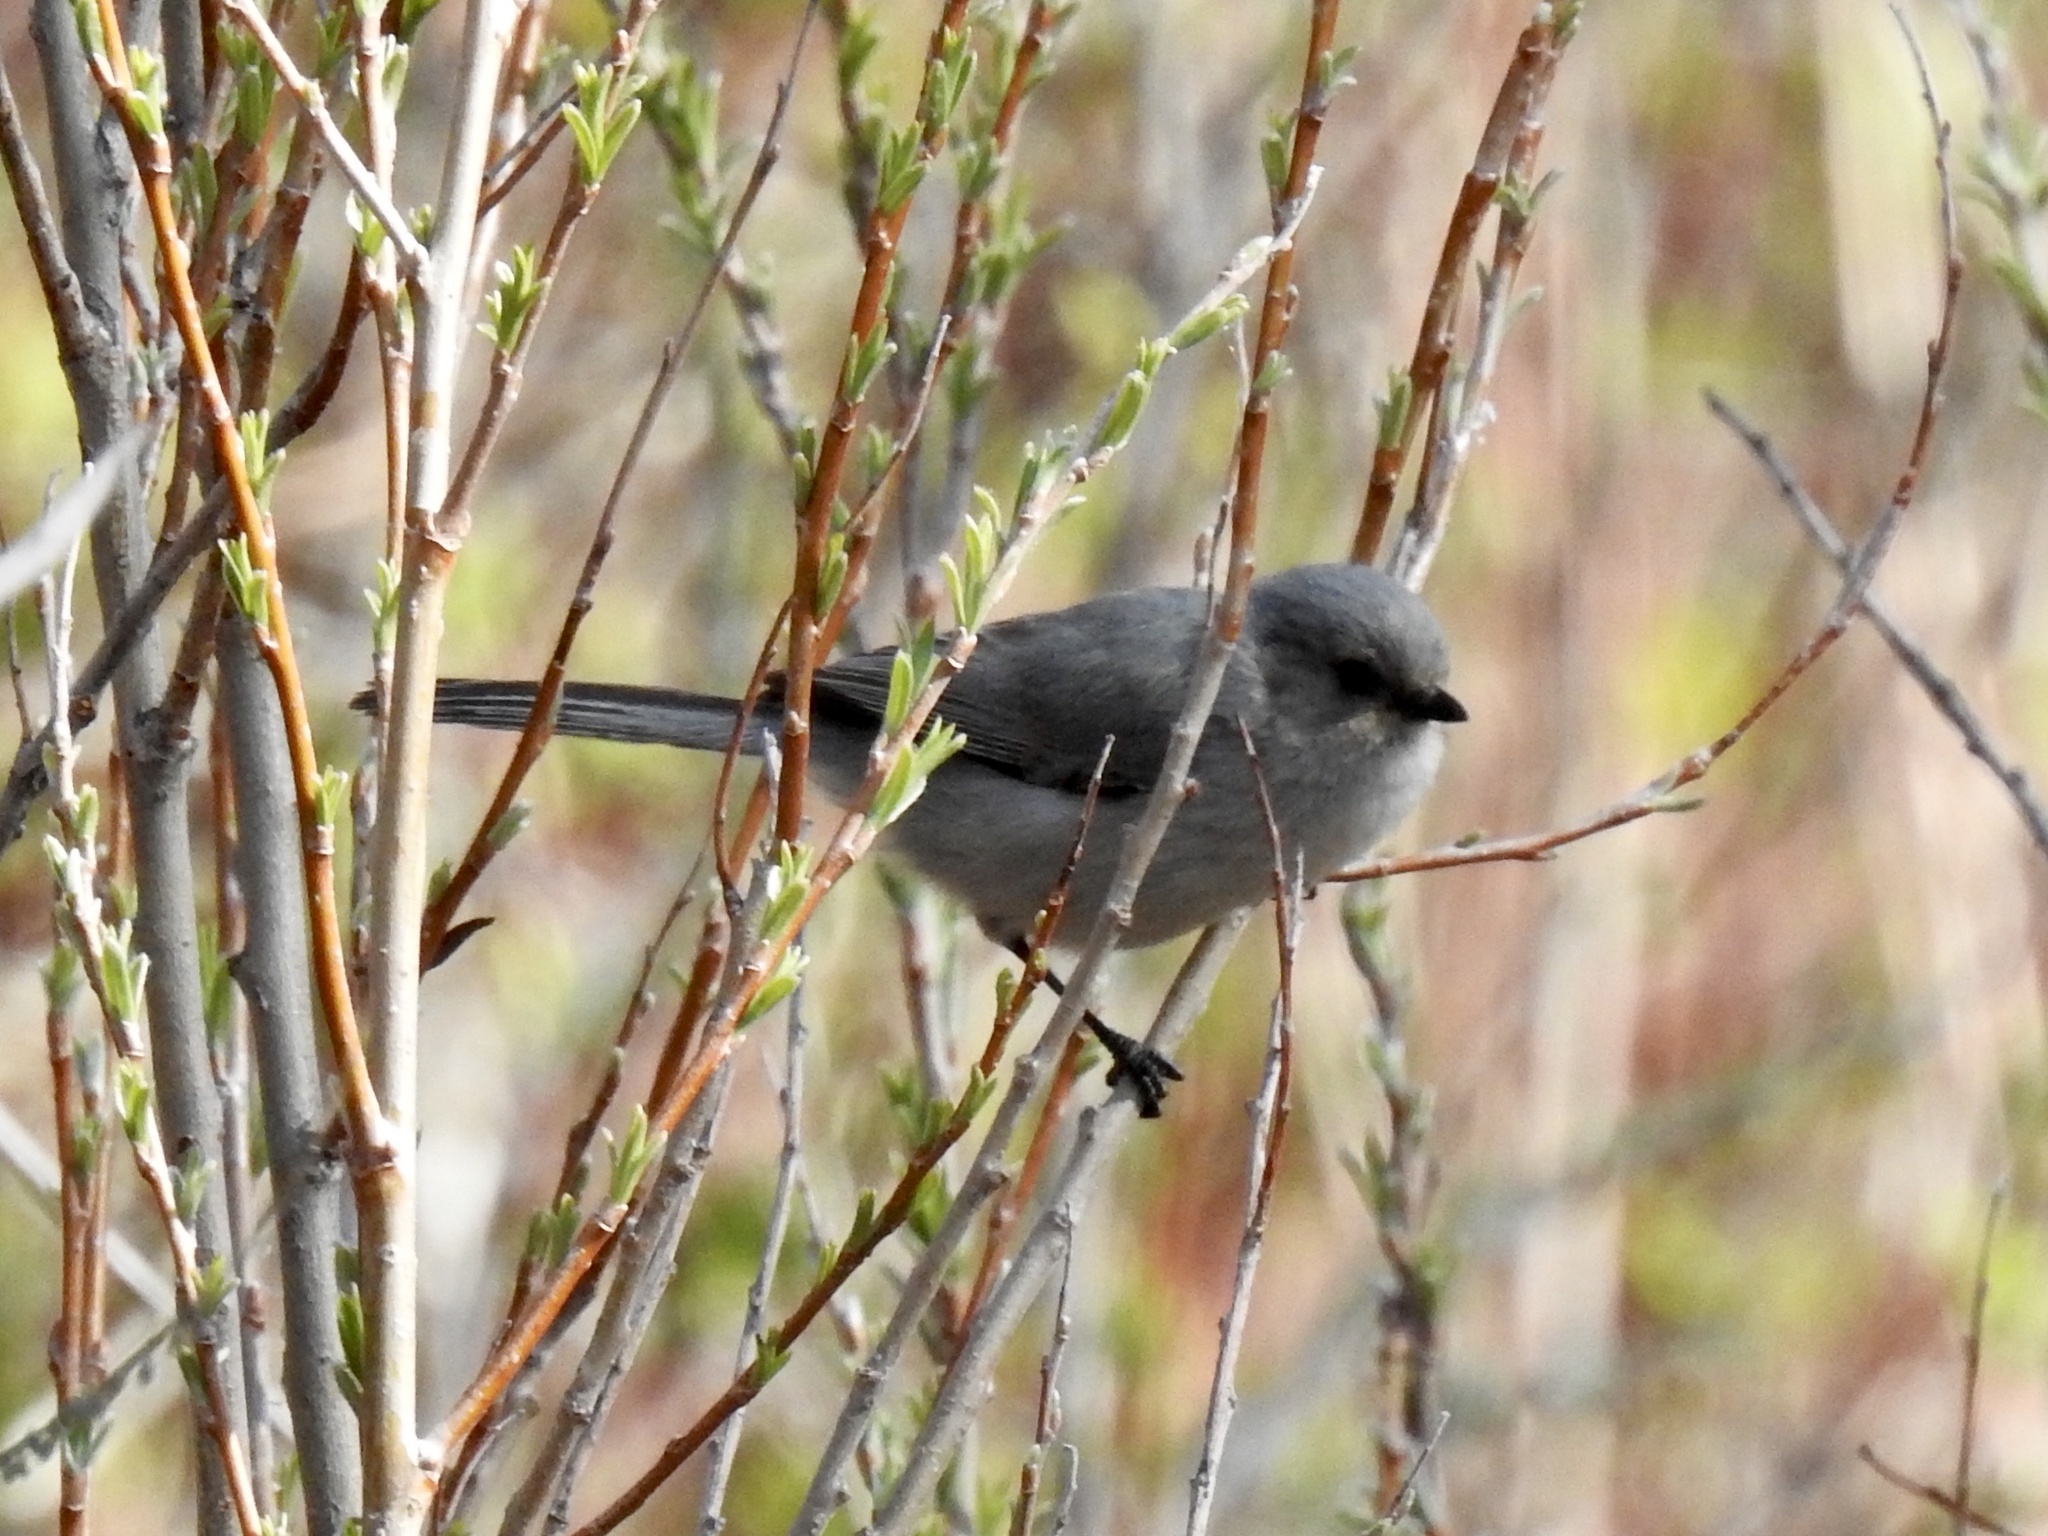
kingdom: Animalia
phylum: Chordata
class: Aves
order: Passeriformes
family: Aegithalidae
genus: Psaltriparus
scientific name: Psaltriparus minimus
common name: American bushtit
